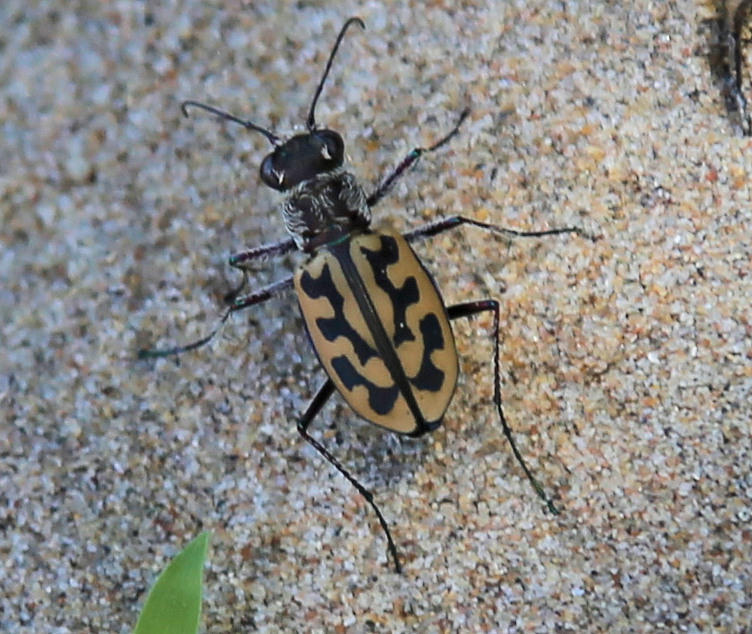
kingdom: Animalia
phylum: Arthropoda
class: Insecta
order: Coleoptera
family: Carabidae
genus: Lophyra
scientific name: Lophyra differens
